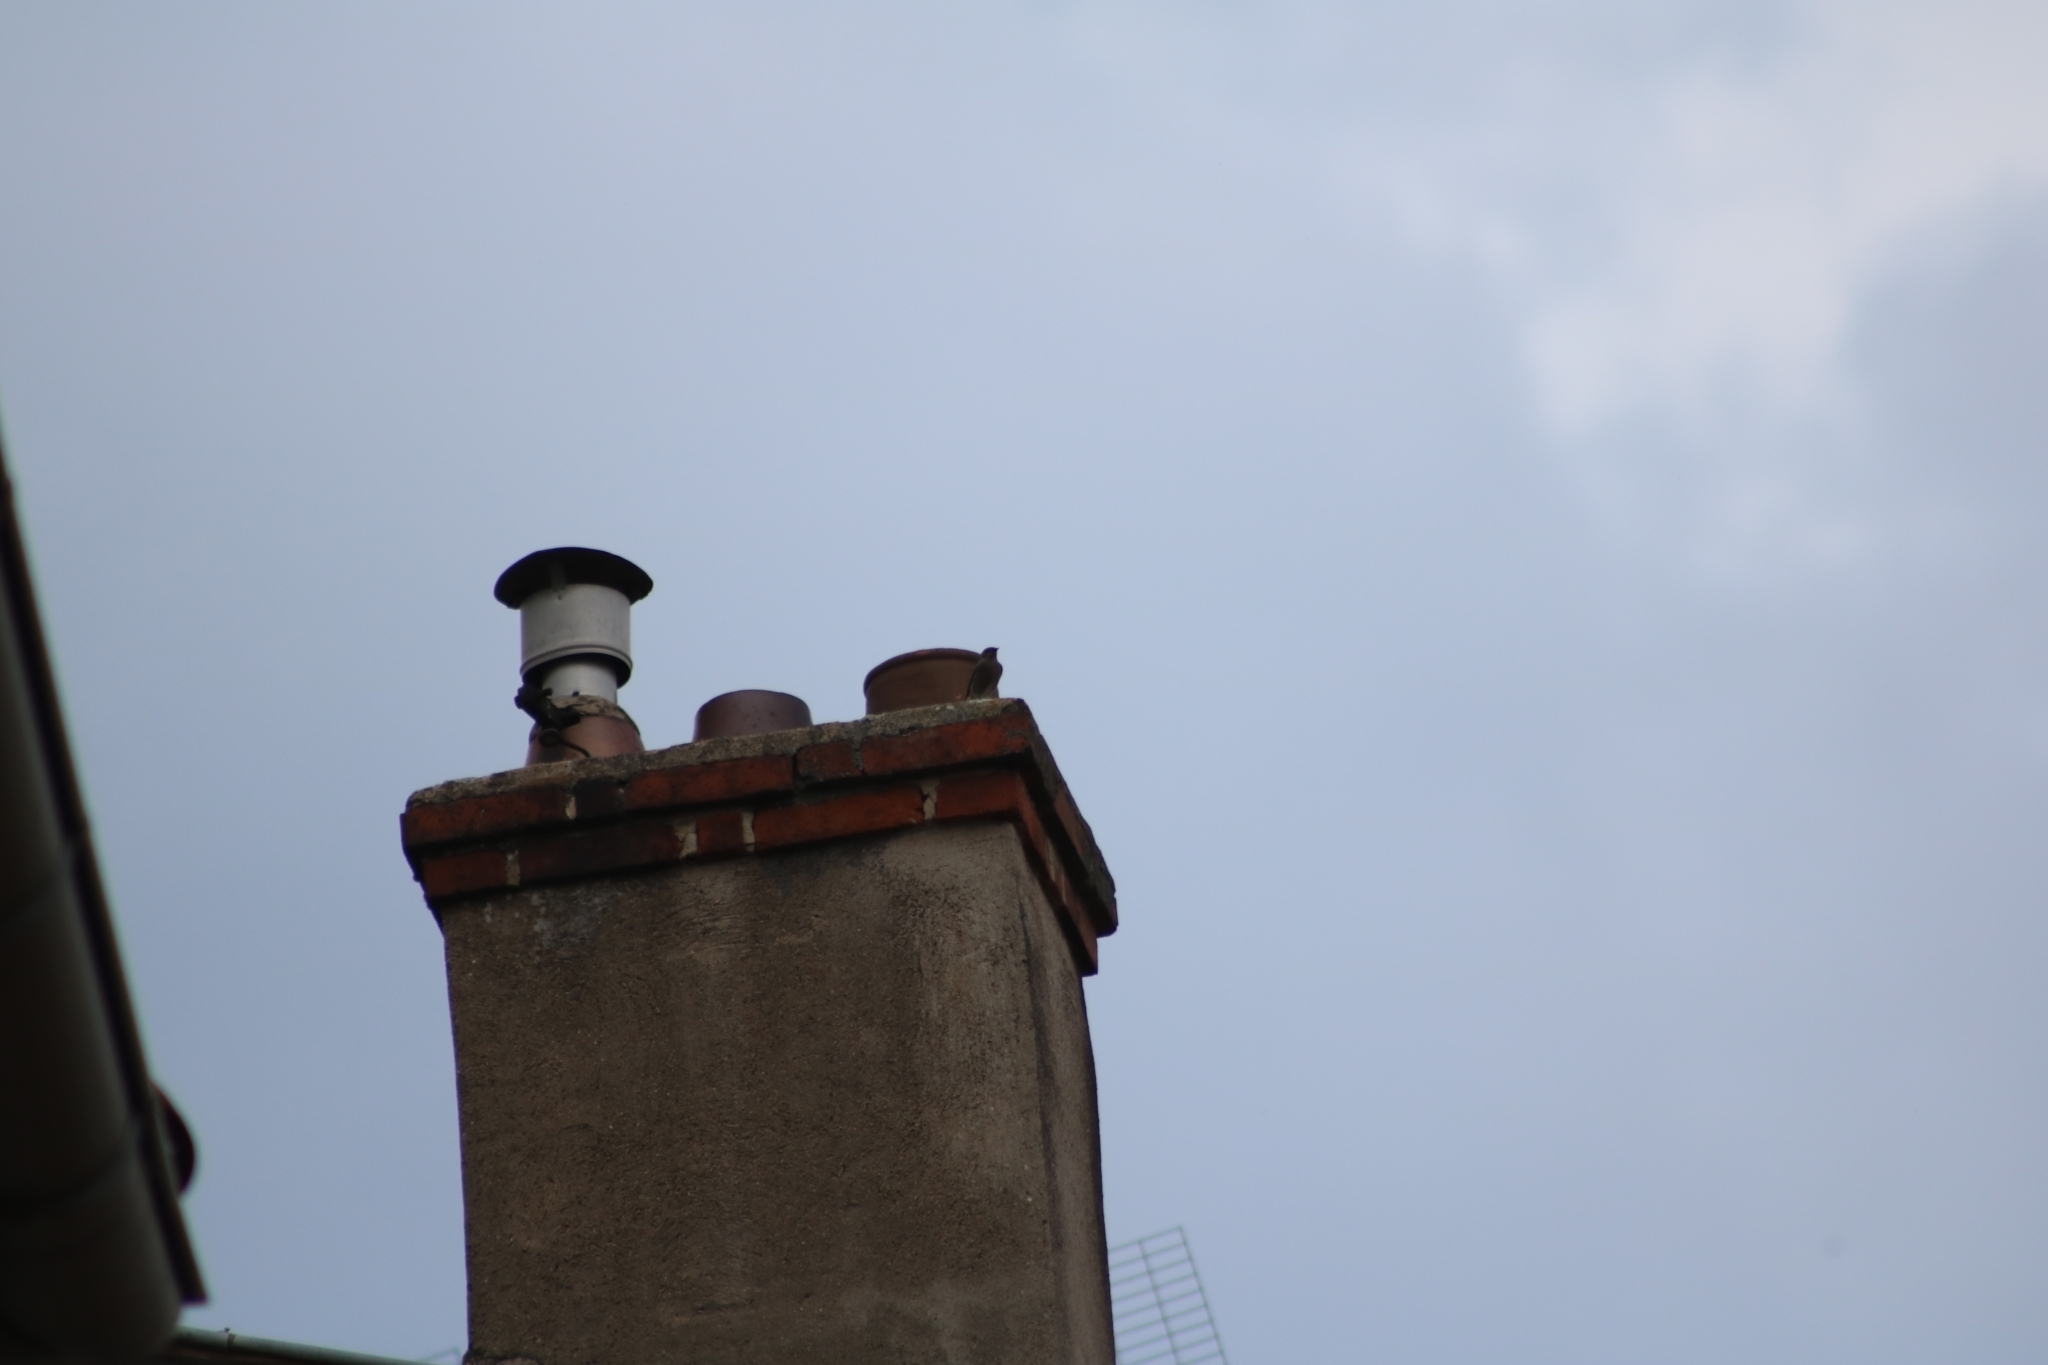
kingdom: Animalia
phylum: Chordata
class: Aves
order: Passeriformes
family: Muscicapidae
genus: Phoenicurus
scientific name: Phoenicurus ochruros
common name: Black redstart
